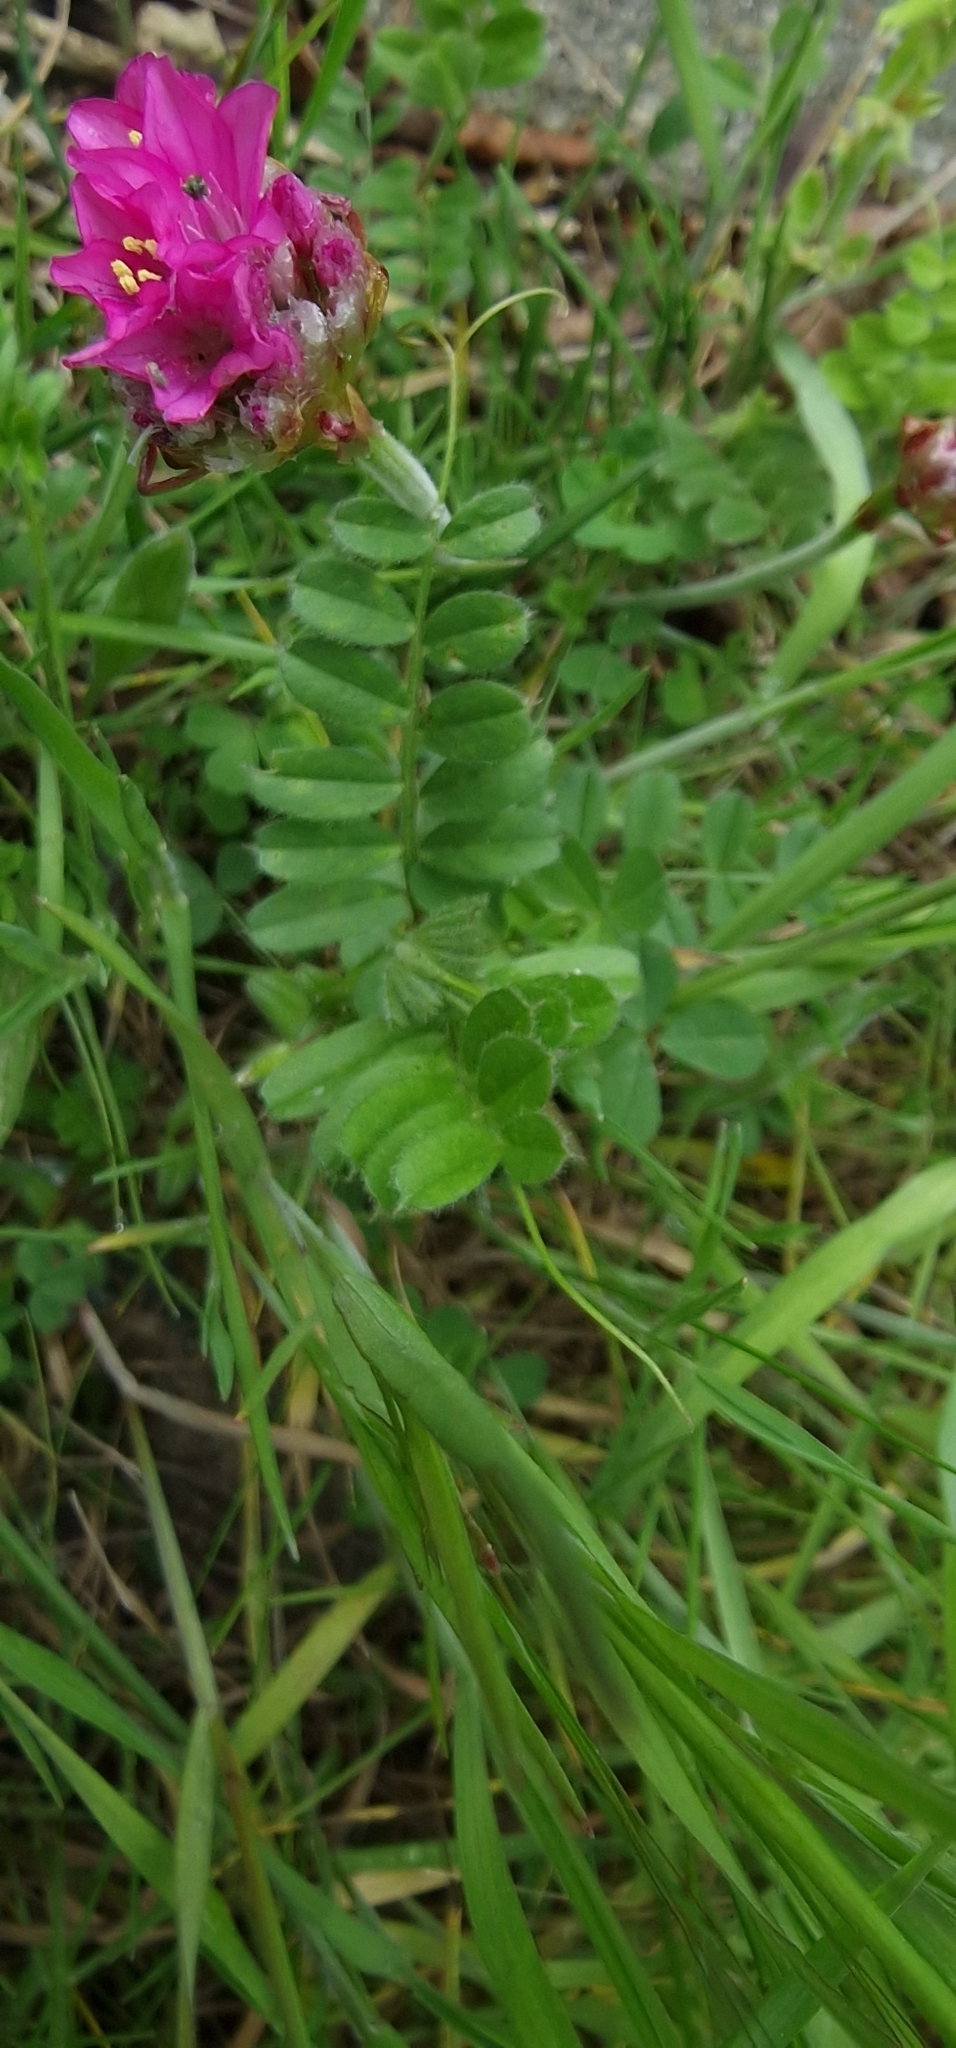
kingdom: Plantae
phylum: Tracheophyta
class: Magnoliopsida
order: Fabales
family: Fabaceae
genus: Vicia
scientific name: Vicia sativa
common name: Garden vetch
